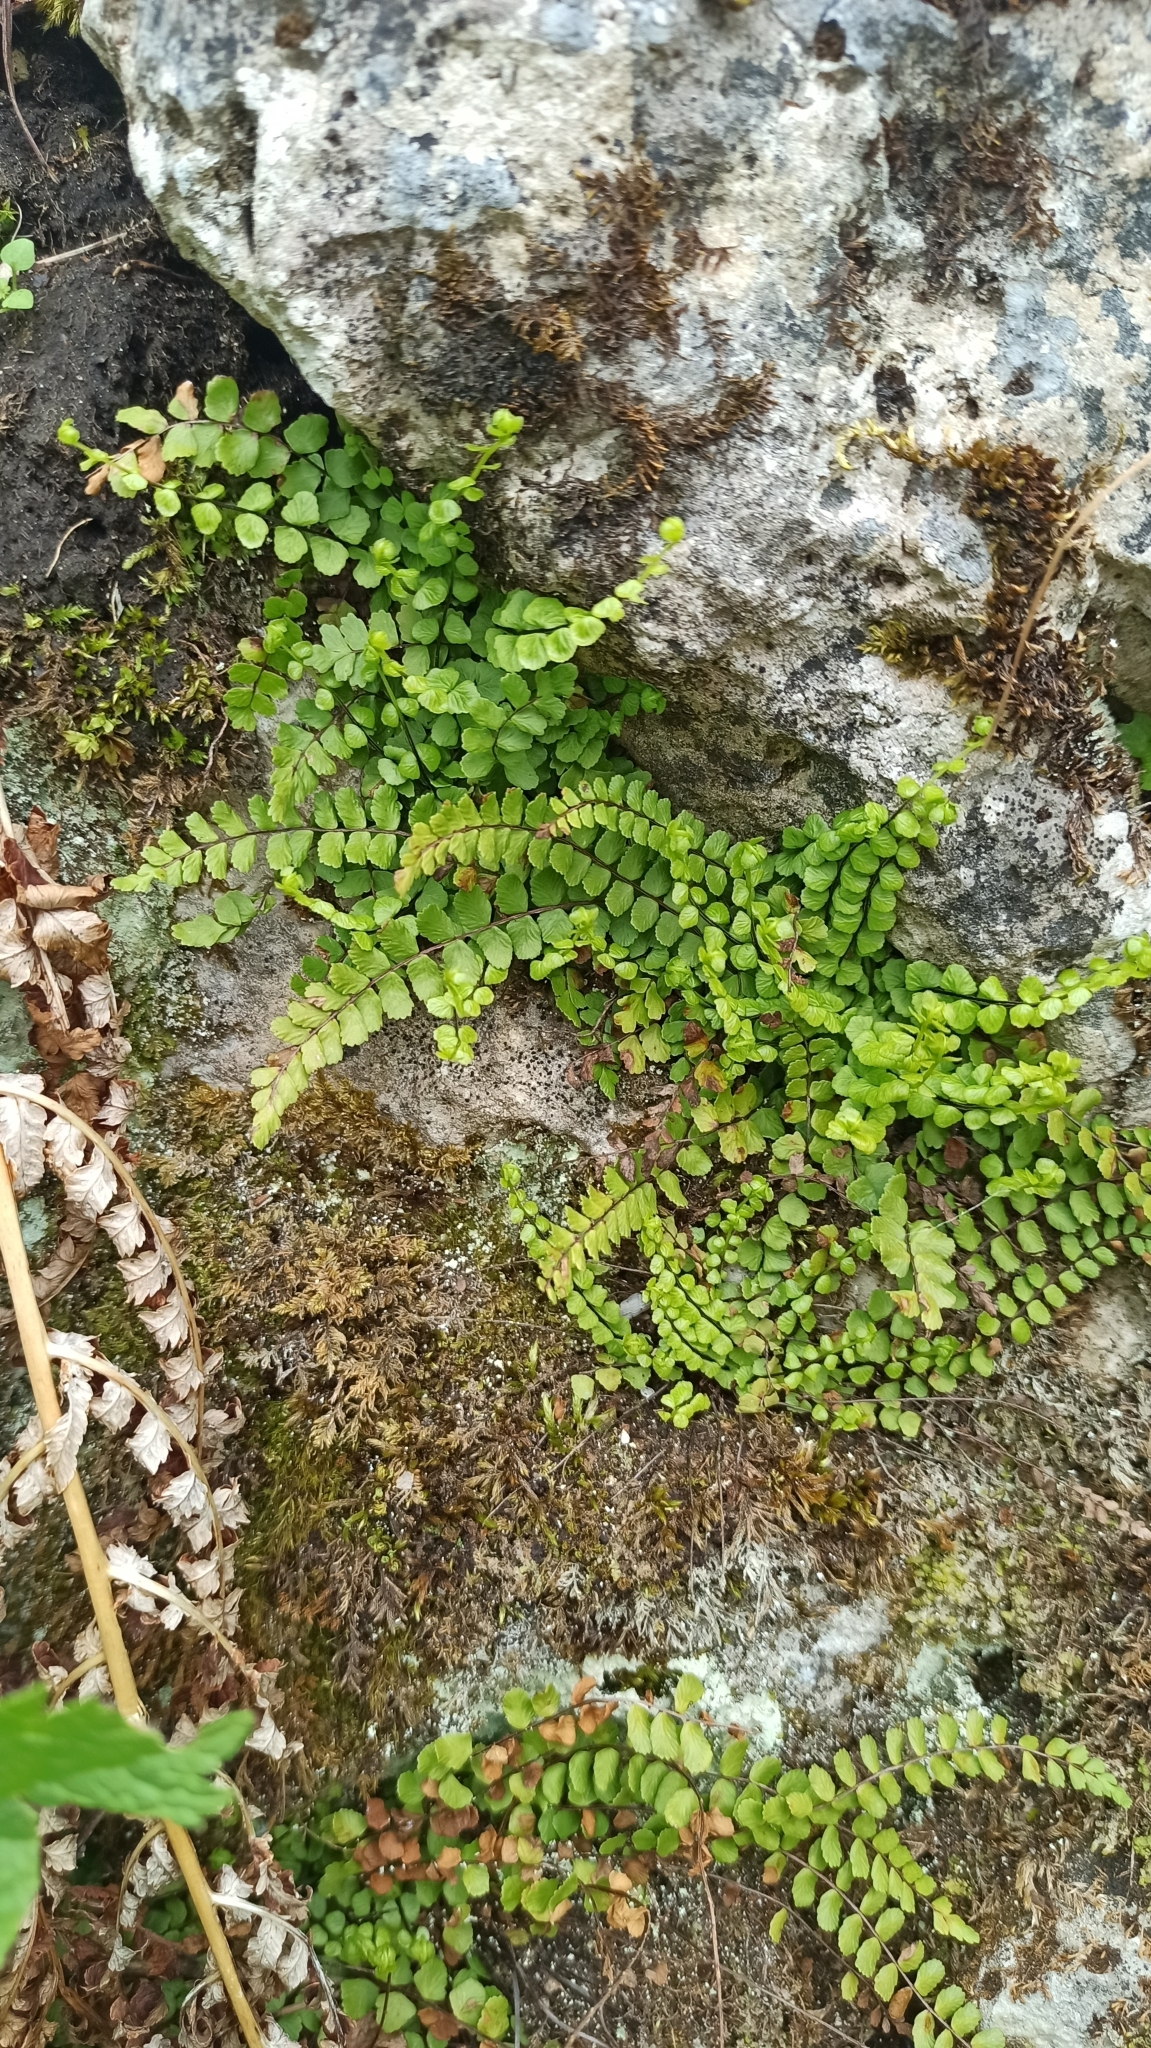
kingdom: Plantae
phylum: Tracheophyta
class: Polypodiopsida
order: Polypodiales
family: Aspleniaceae
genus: Asplenium
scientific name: Asplenium trichomanes
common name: Maidenhair spleenwort
